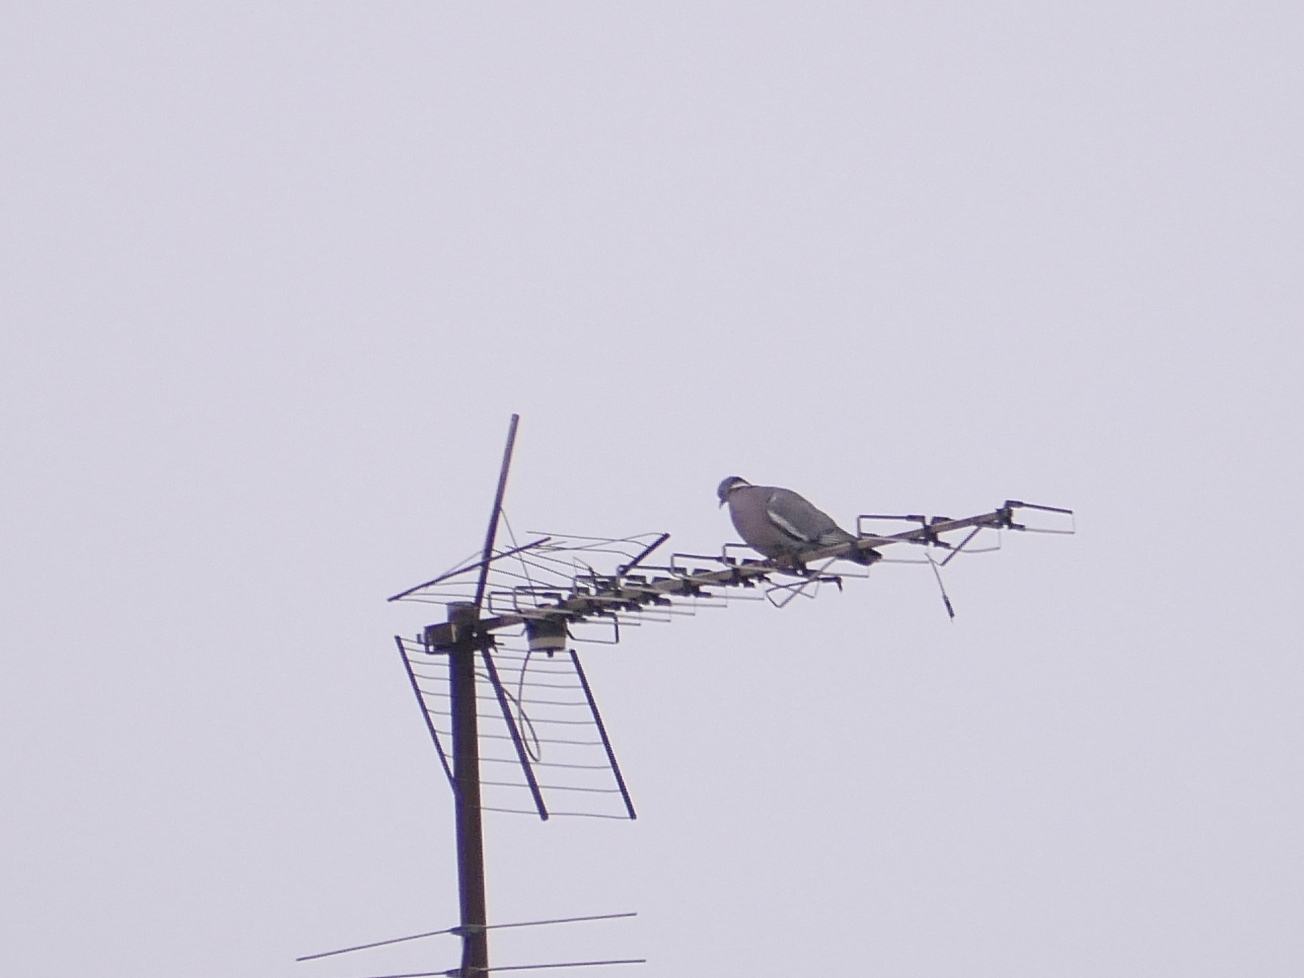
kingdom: Animalia
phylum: Chordata
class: Aves
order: Columbiformes
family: Columbidae
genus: Columba
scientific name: Columba palumbus
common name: Common wood pigeon
